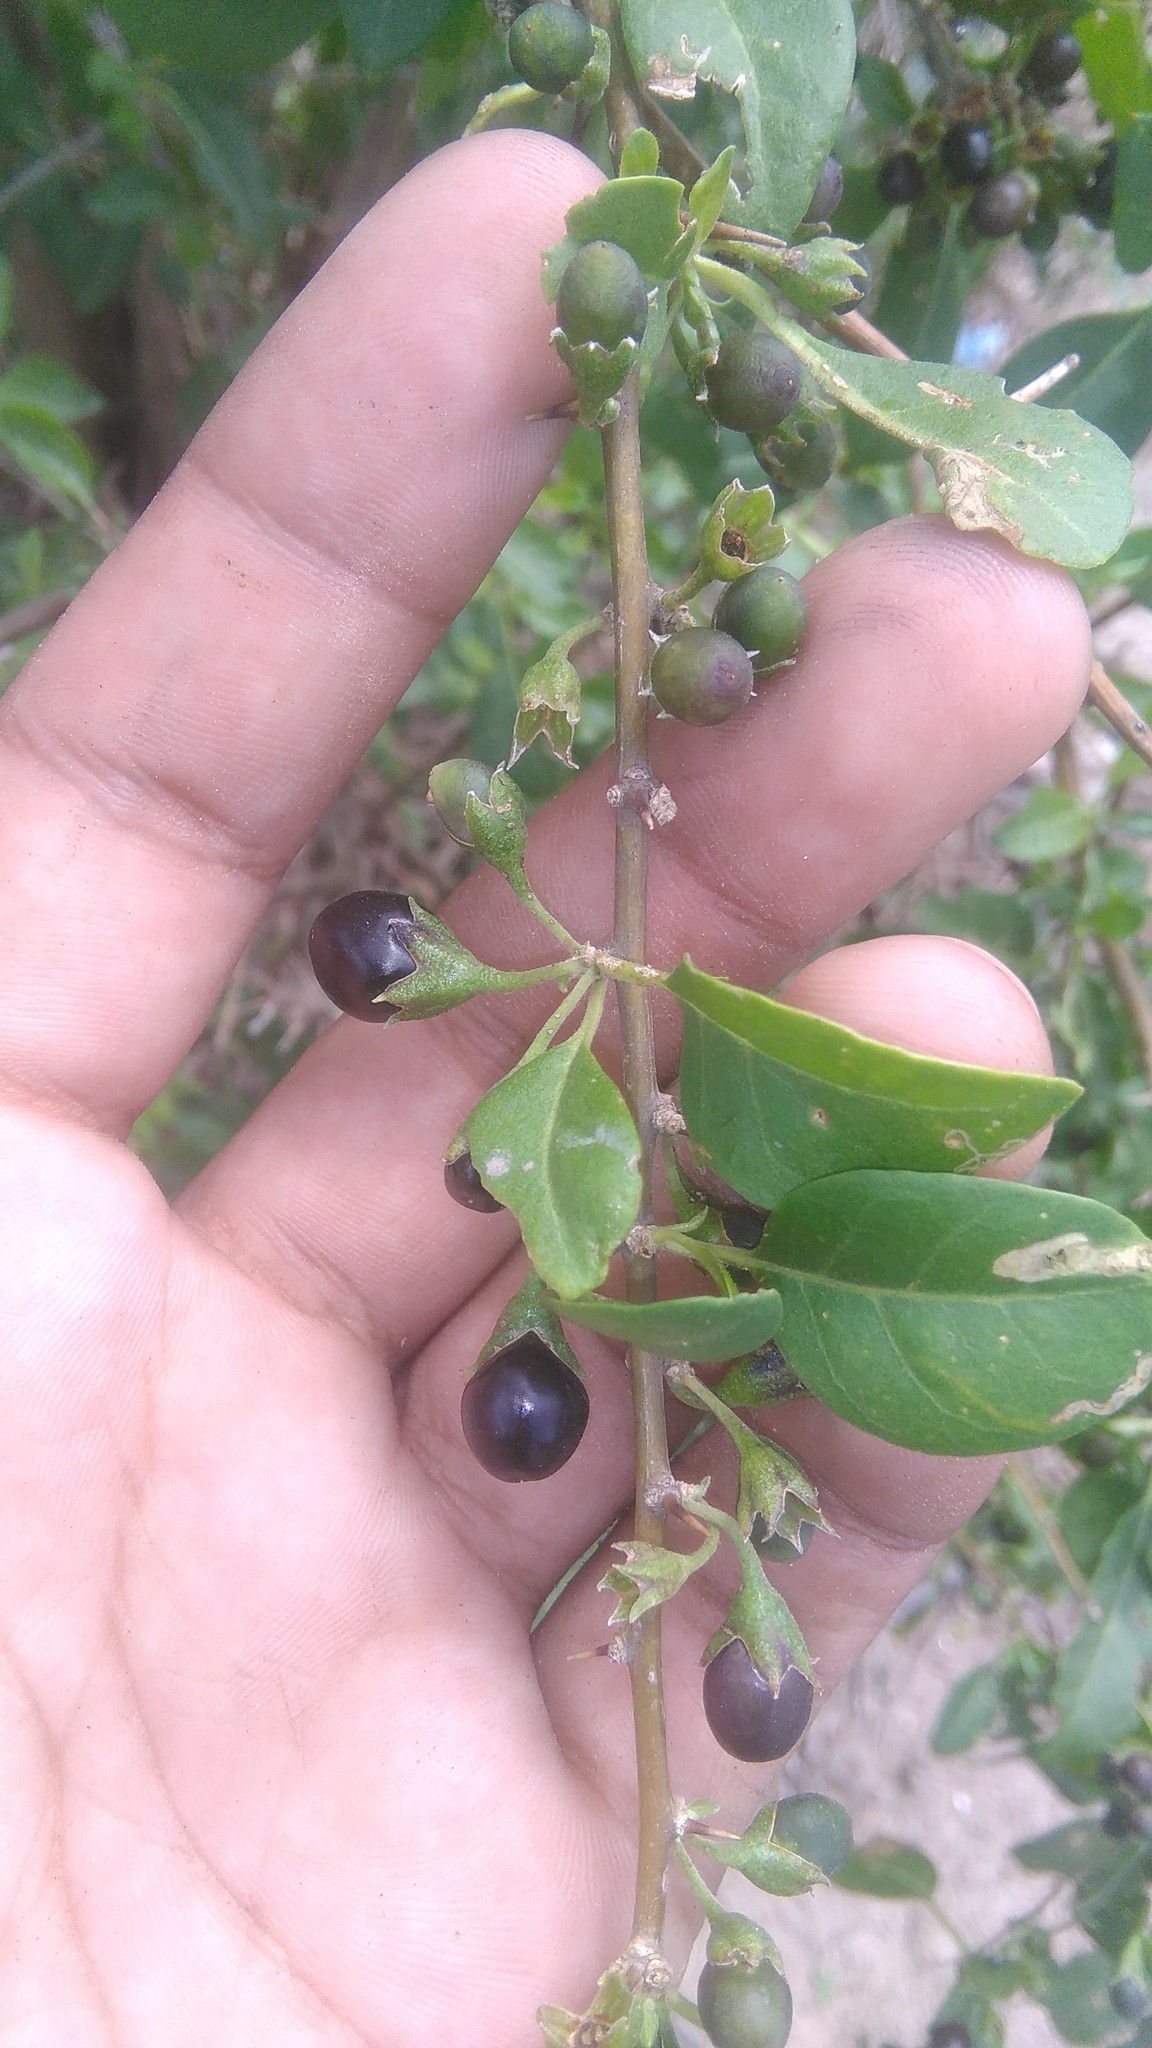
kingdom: Plantae
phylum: Tracheophyta
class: Magnoliopsida
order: Solanales
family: Solanaceae
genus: Lycium
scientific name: Lycium cestroides
